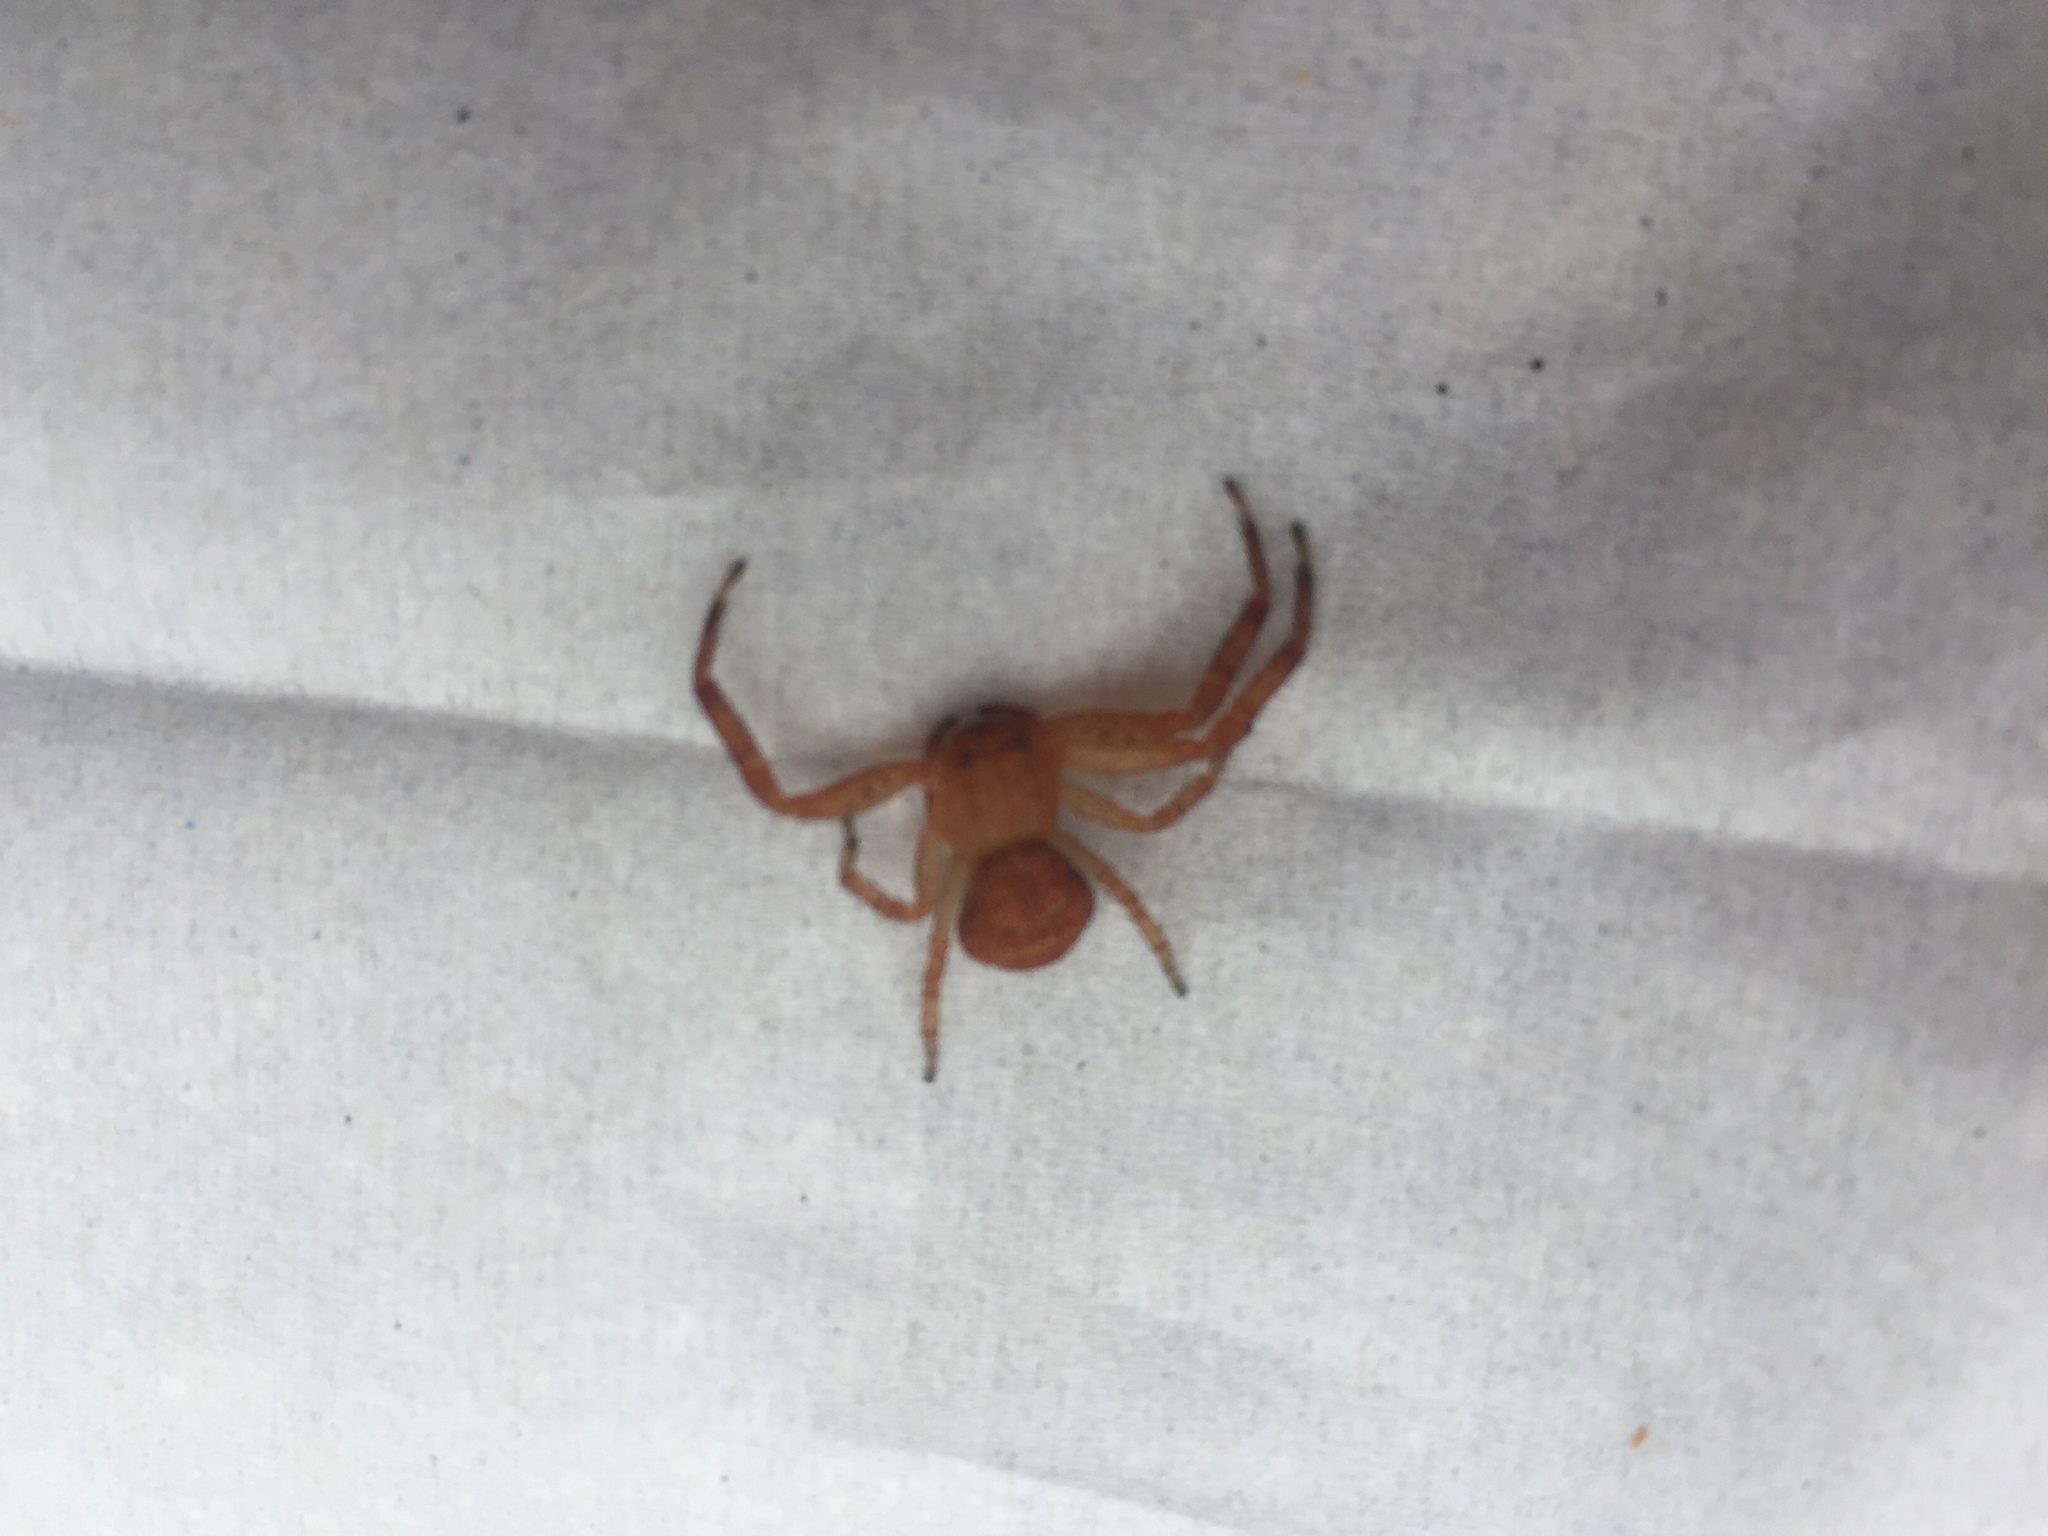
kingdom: Animalia
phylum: Arthropoda
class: Arachnida
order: Araneae
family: Thomisidae
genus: Xysticus
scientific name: Xysticus funestus
